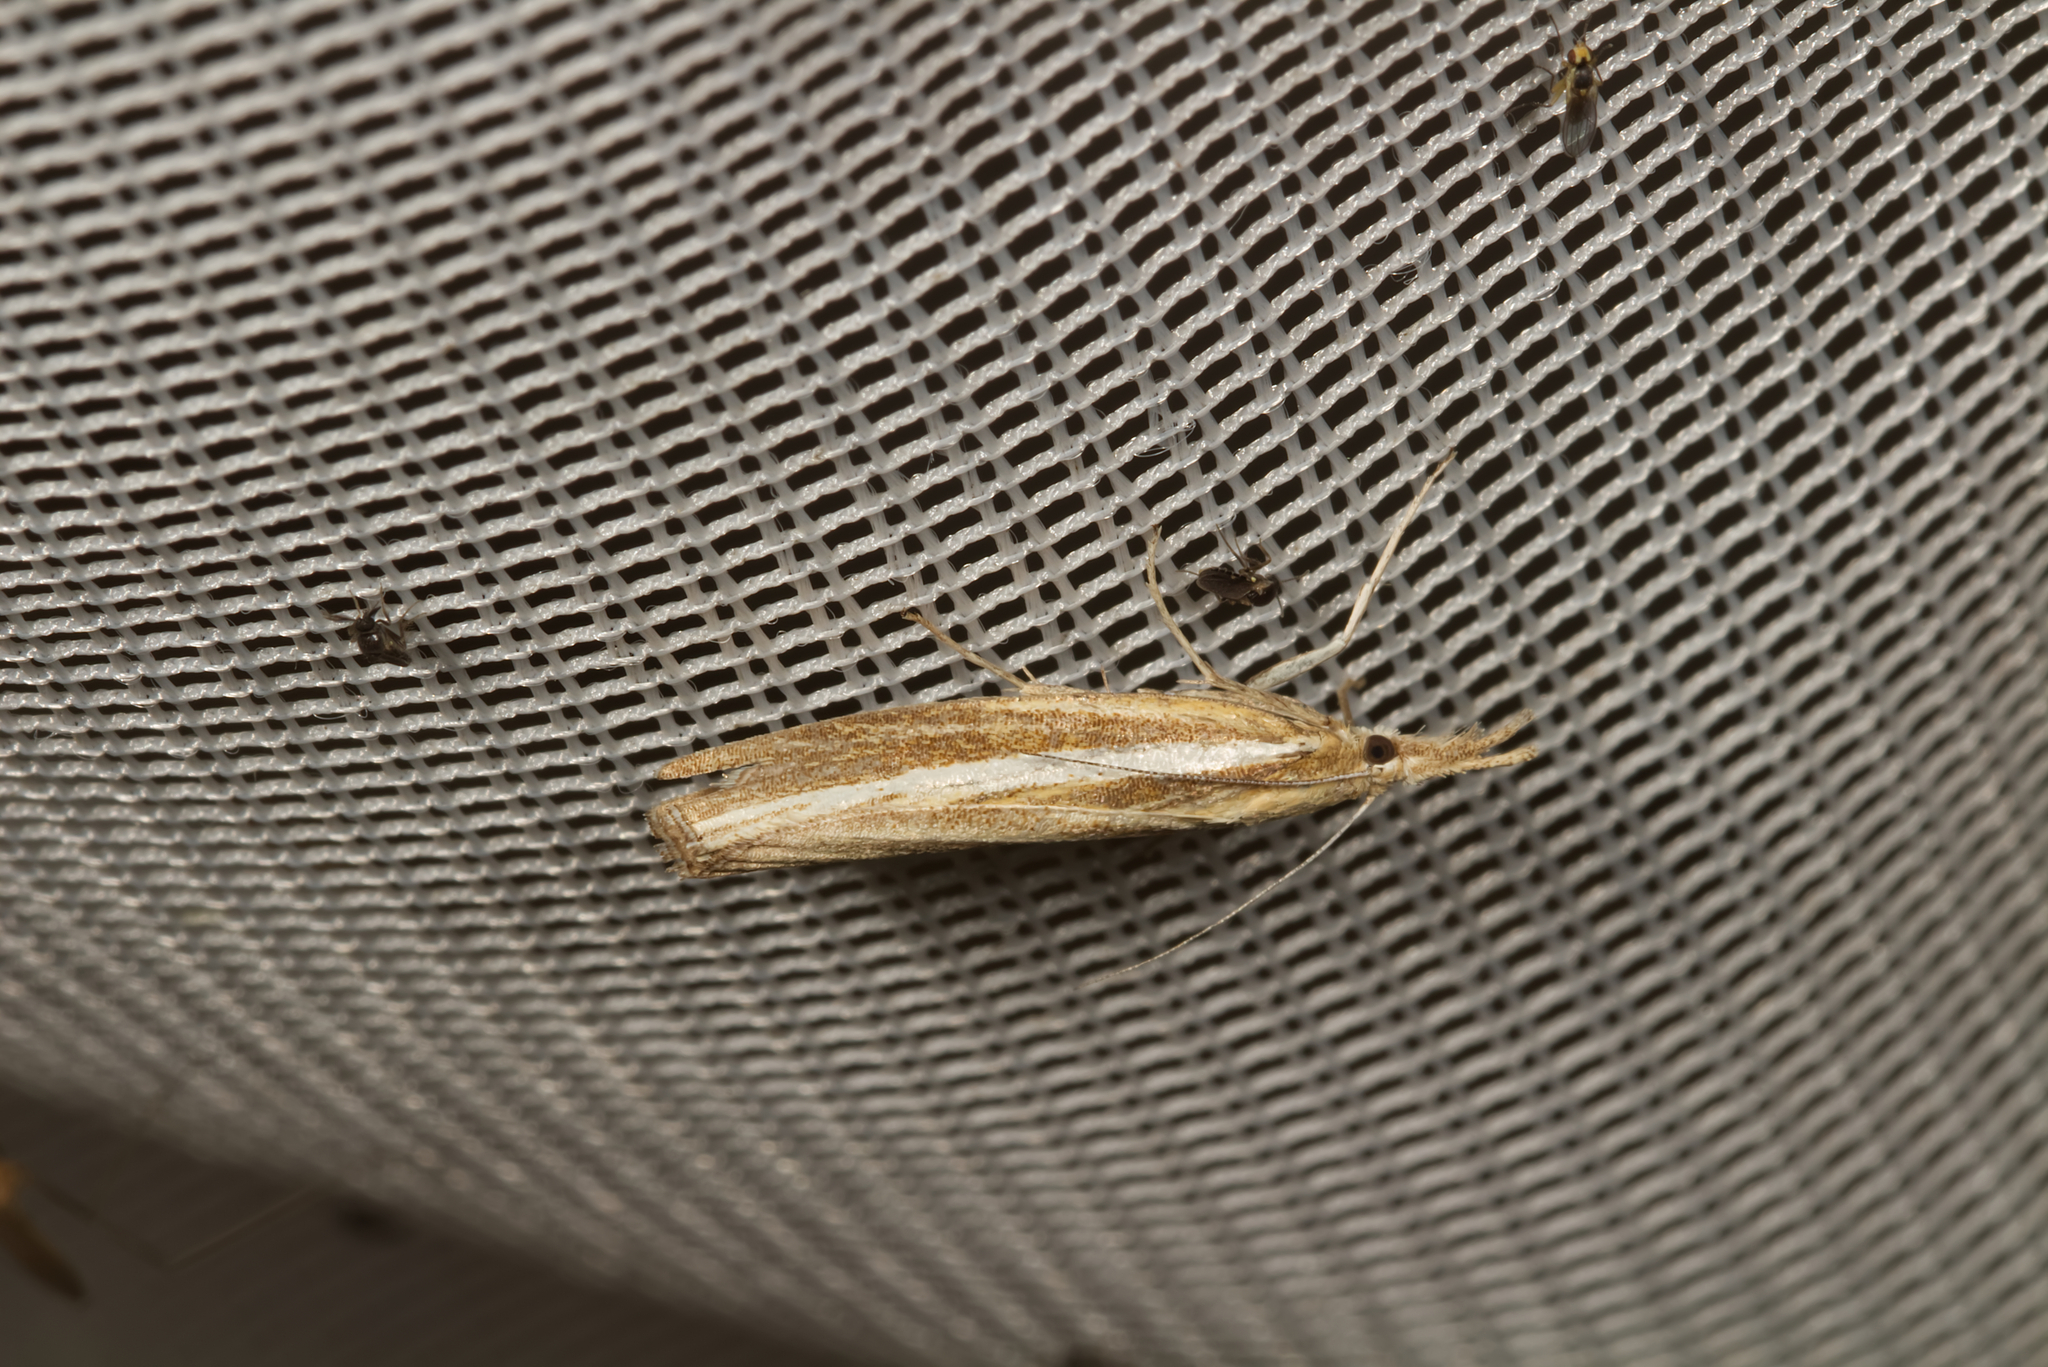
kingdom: Animalia
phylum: Arthropoda
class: Insecta
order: Lepidoptera
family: Crambidae
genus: Agriphila
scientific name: Agriphila tristellus
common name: Common grass-veneer
